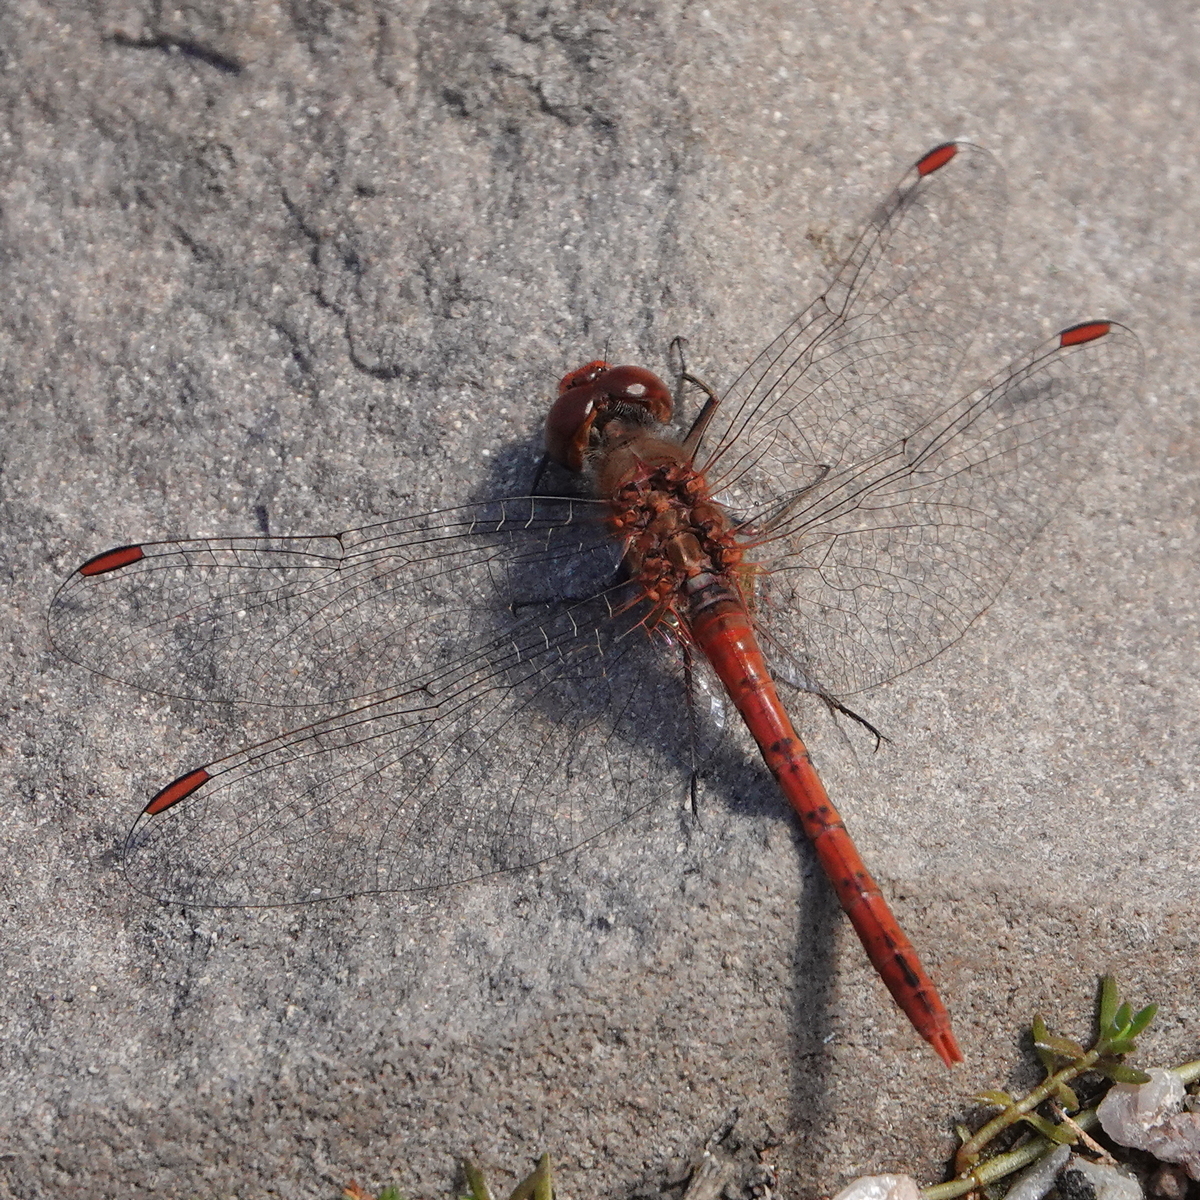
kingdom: Animalia
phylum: Arthropoda
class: Insecta
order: Odonata
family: Libellulidae
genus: Diplacodes
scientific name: Diplacodes bipunctata
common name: Red percher dragonfly
